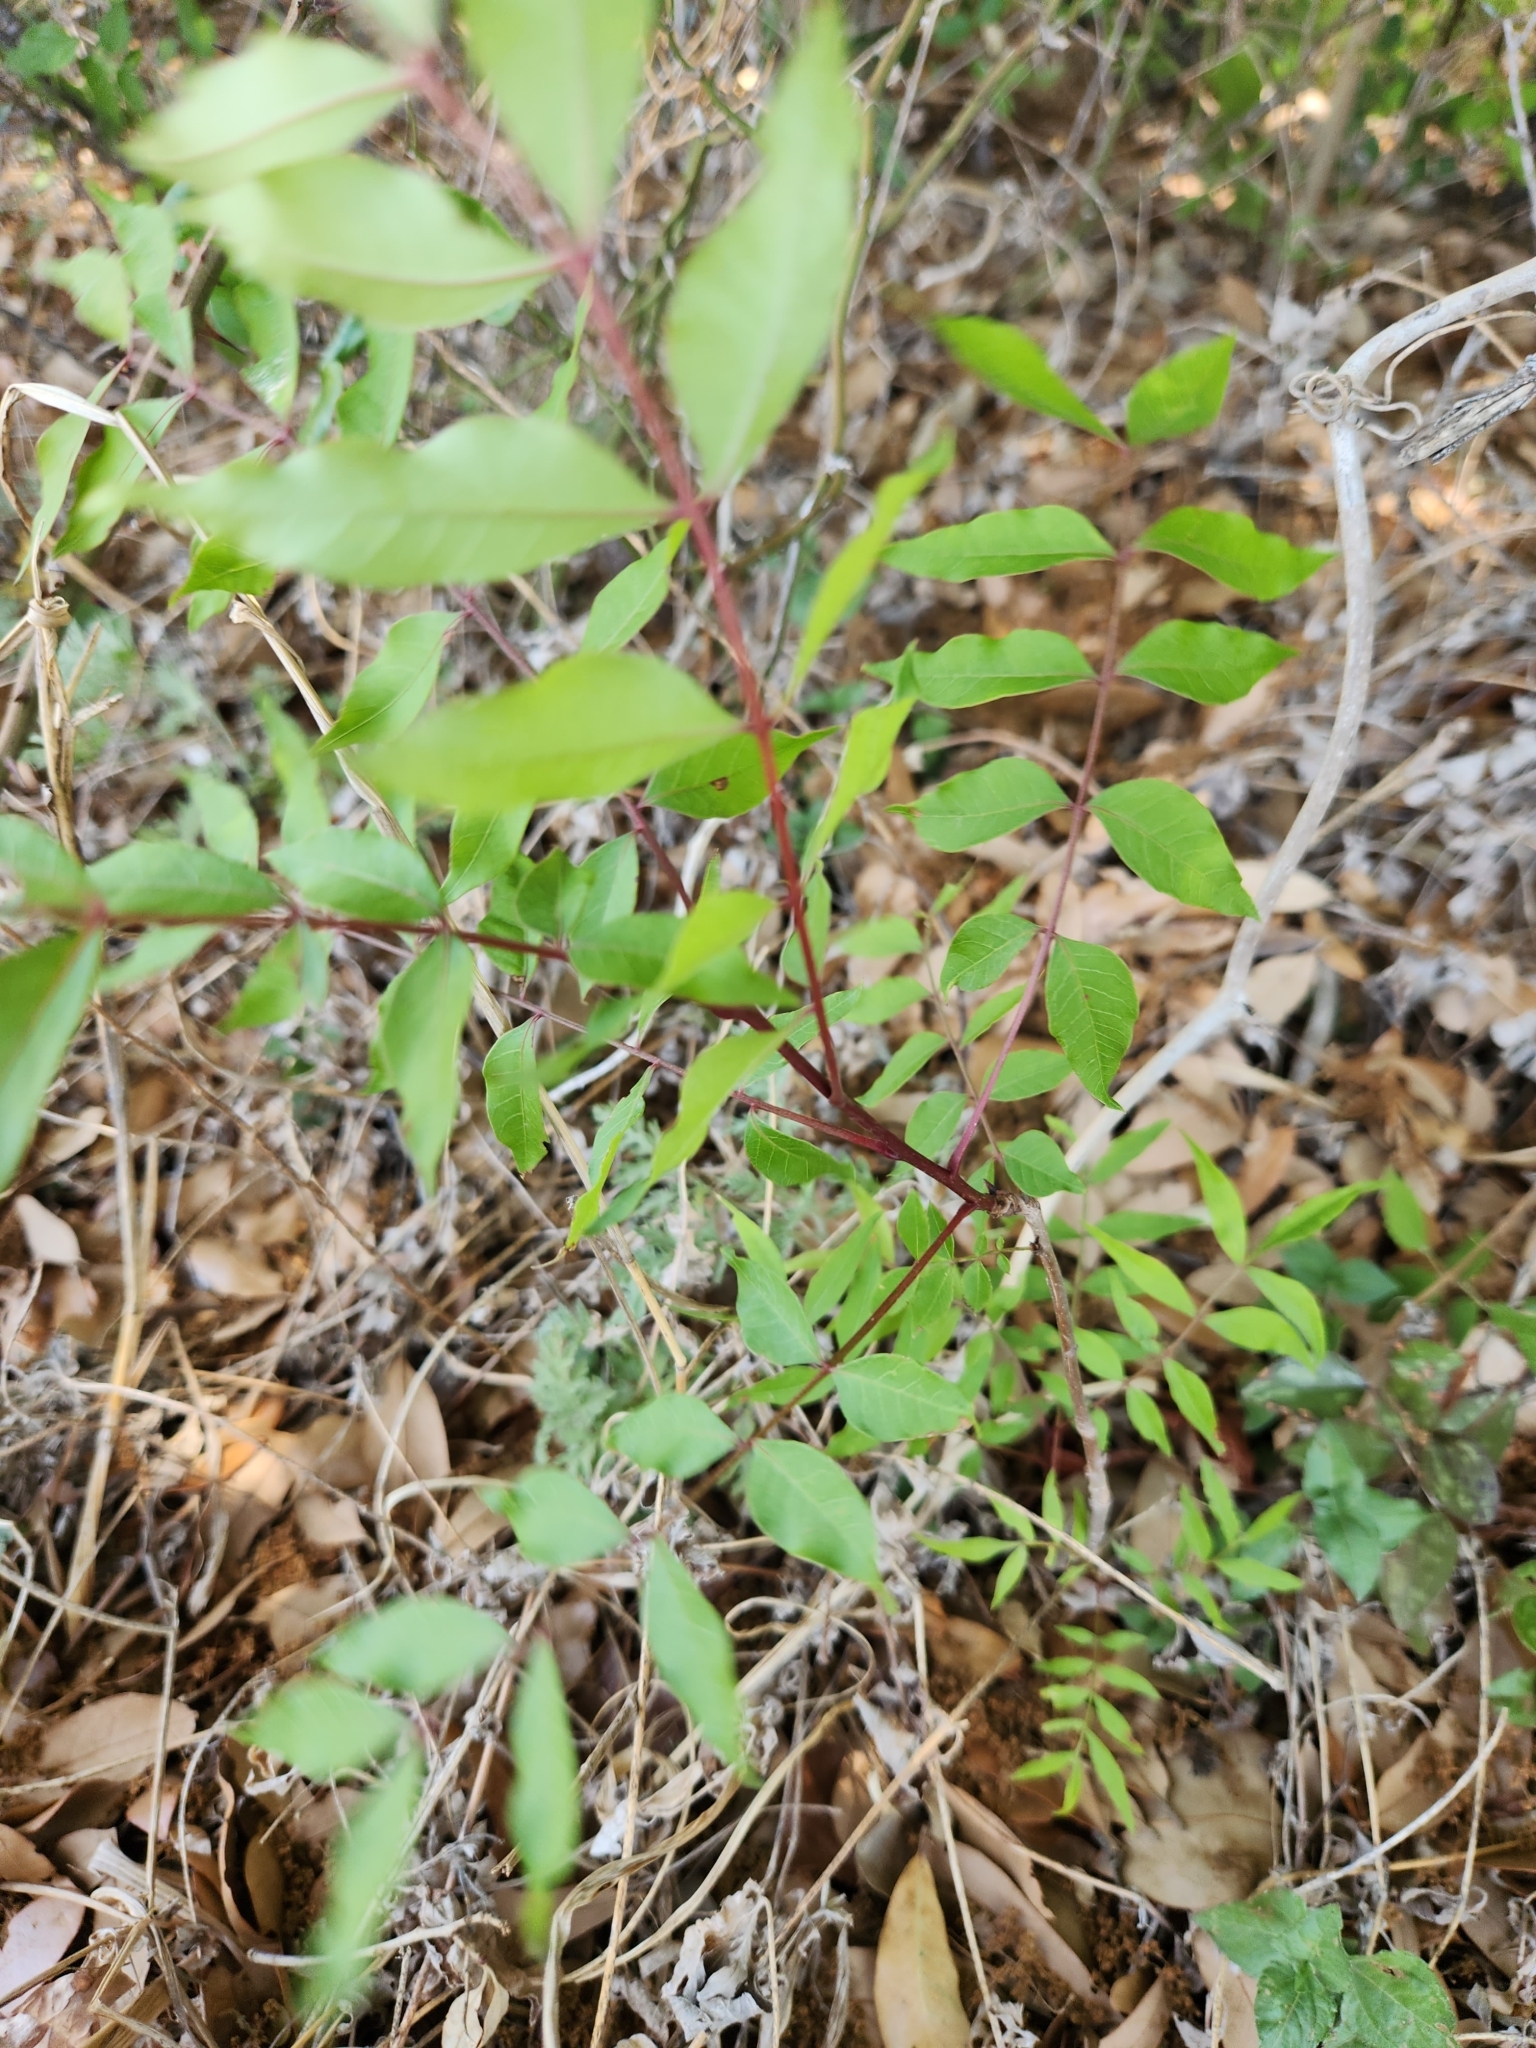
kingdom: Plantae
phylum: Tracheophyta
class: Magnoliopsida
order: Sapindales
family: Anacardiaceae
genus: Pistacia
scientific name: Pistacia chinensis
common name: Chinese pistache
